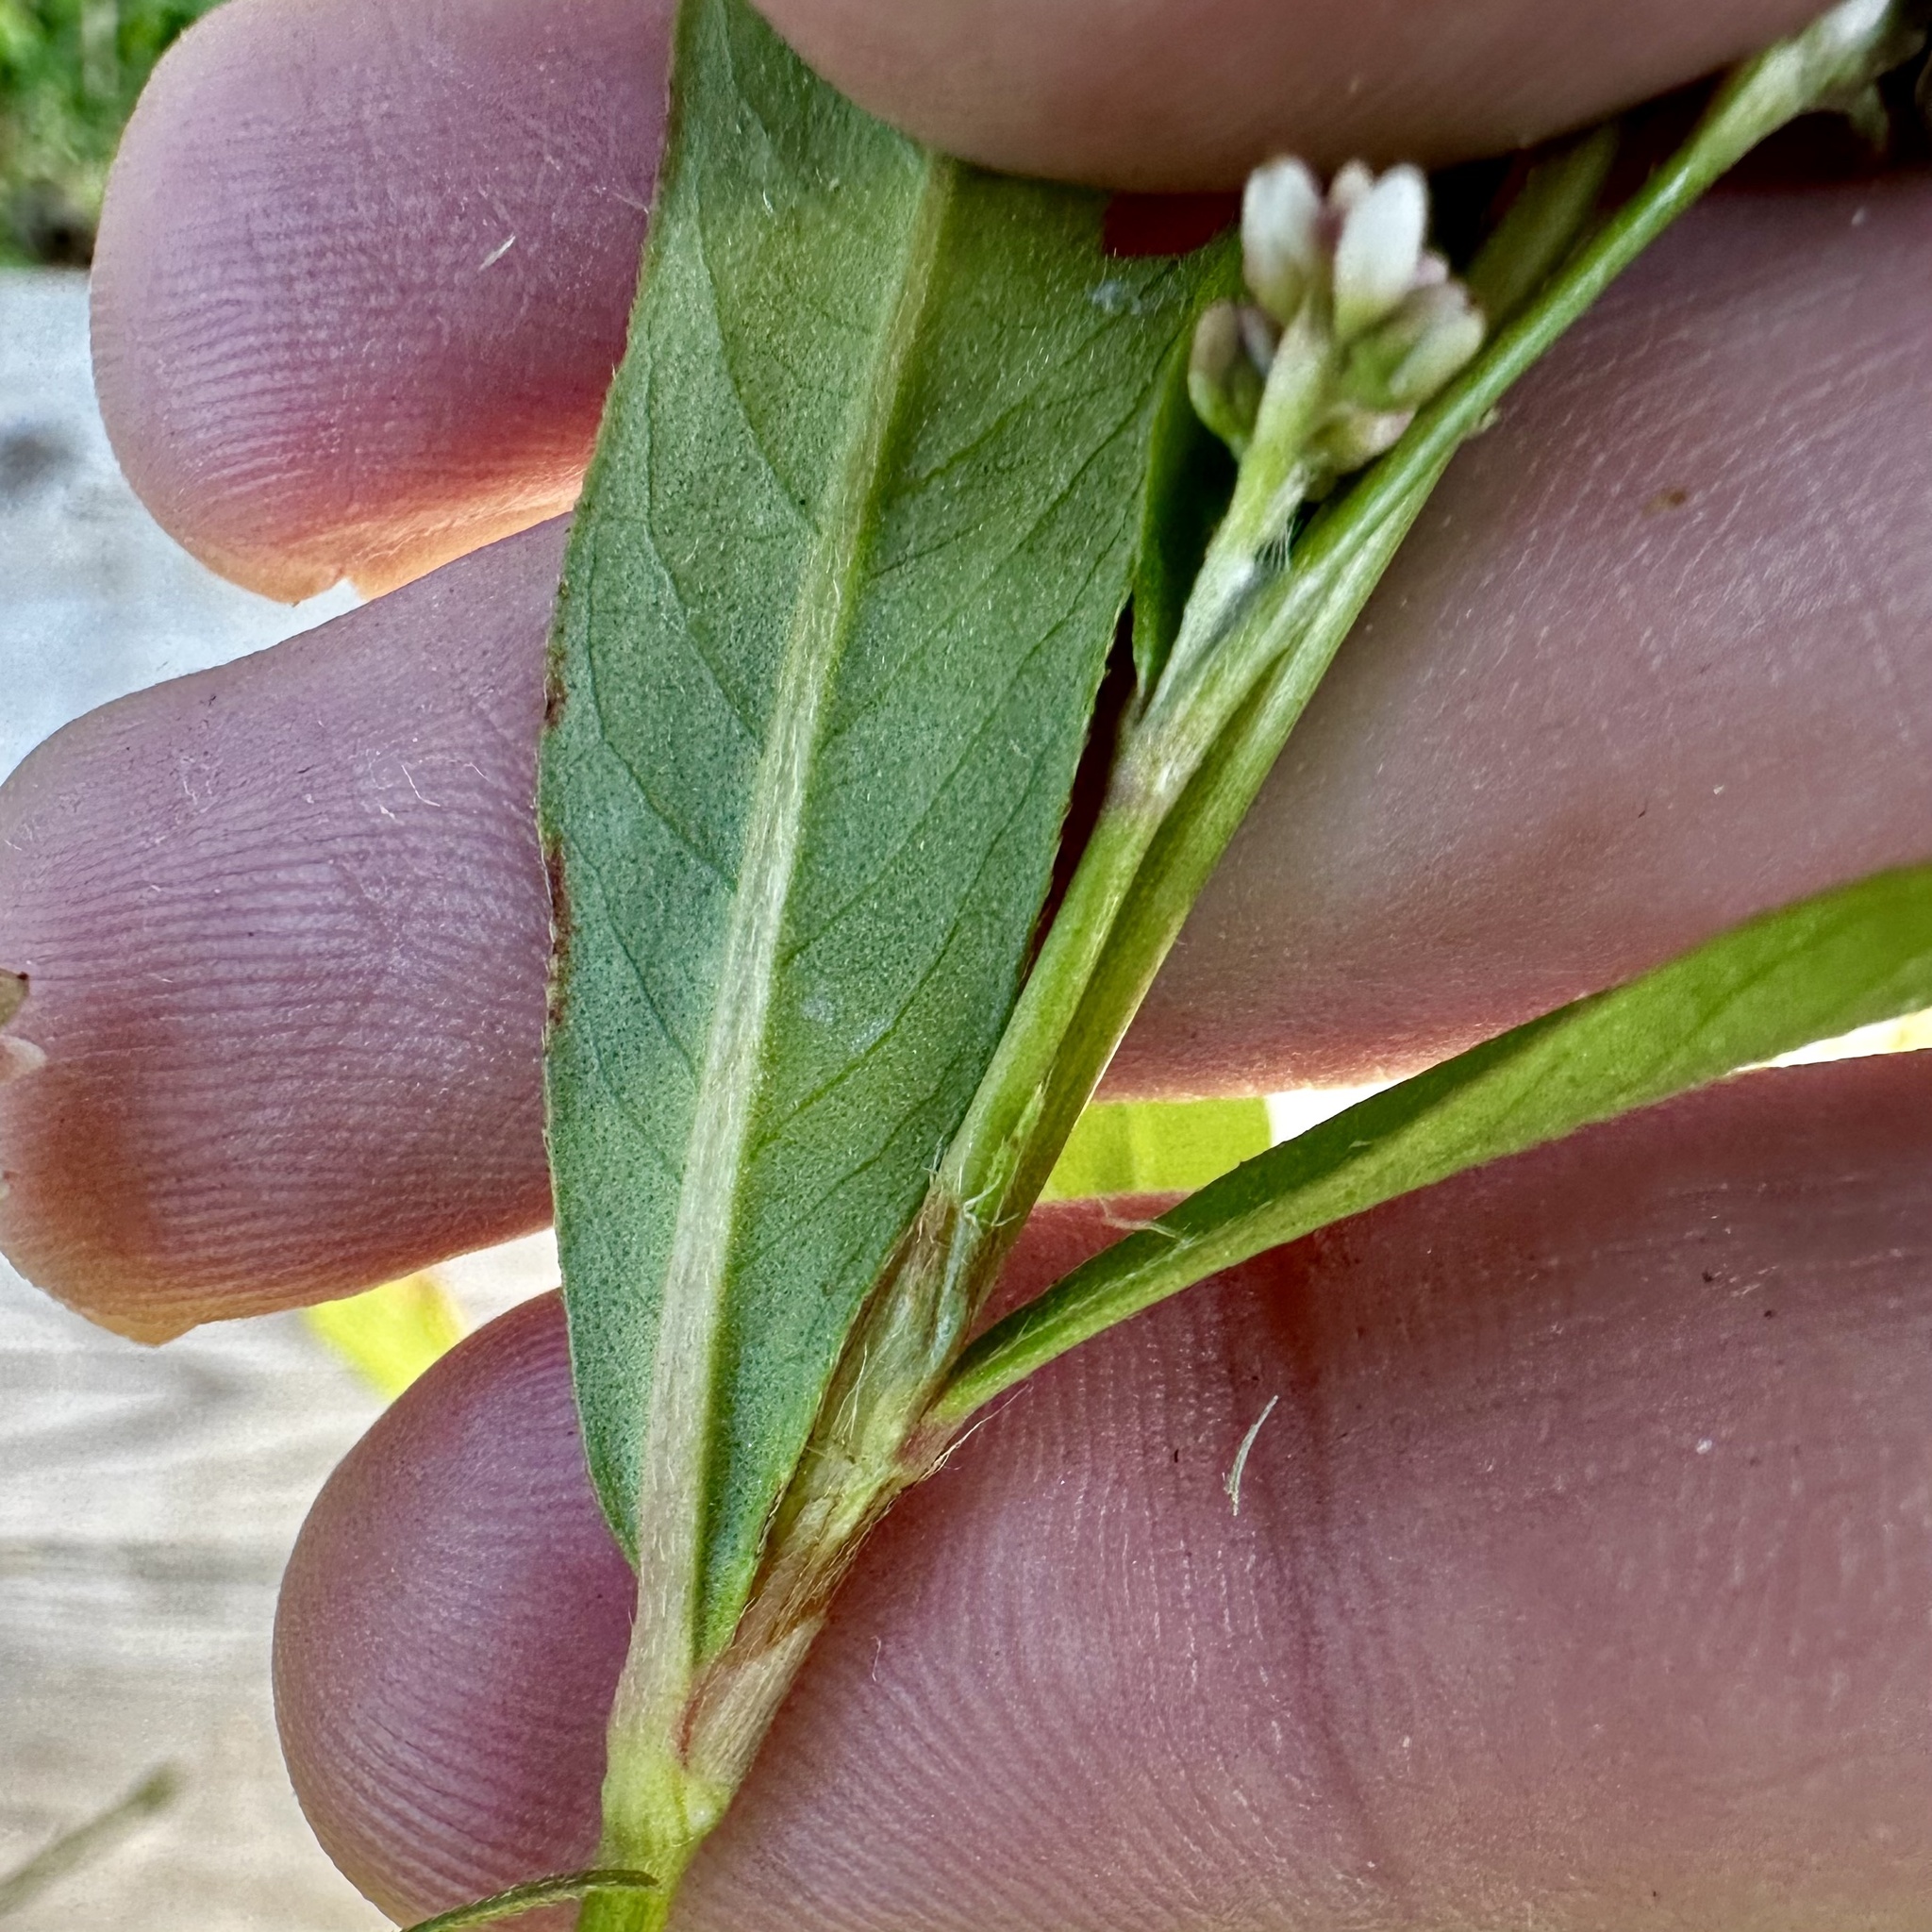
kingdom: Plantae
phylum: Tracheophyta
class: Magnoliopsida
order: Caryophyllales
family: Polygonaceae
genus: Persicaria
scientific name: Persicaria maculosa
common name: Redshank
